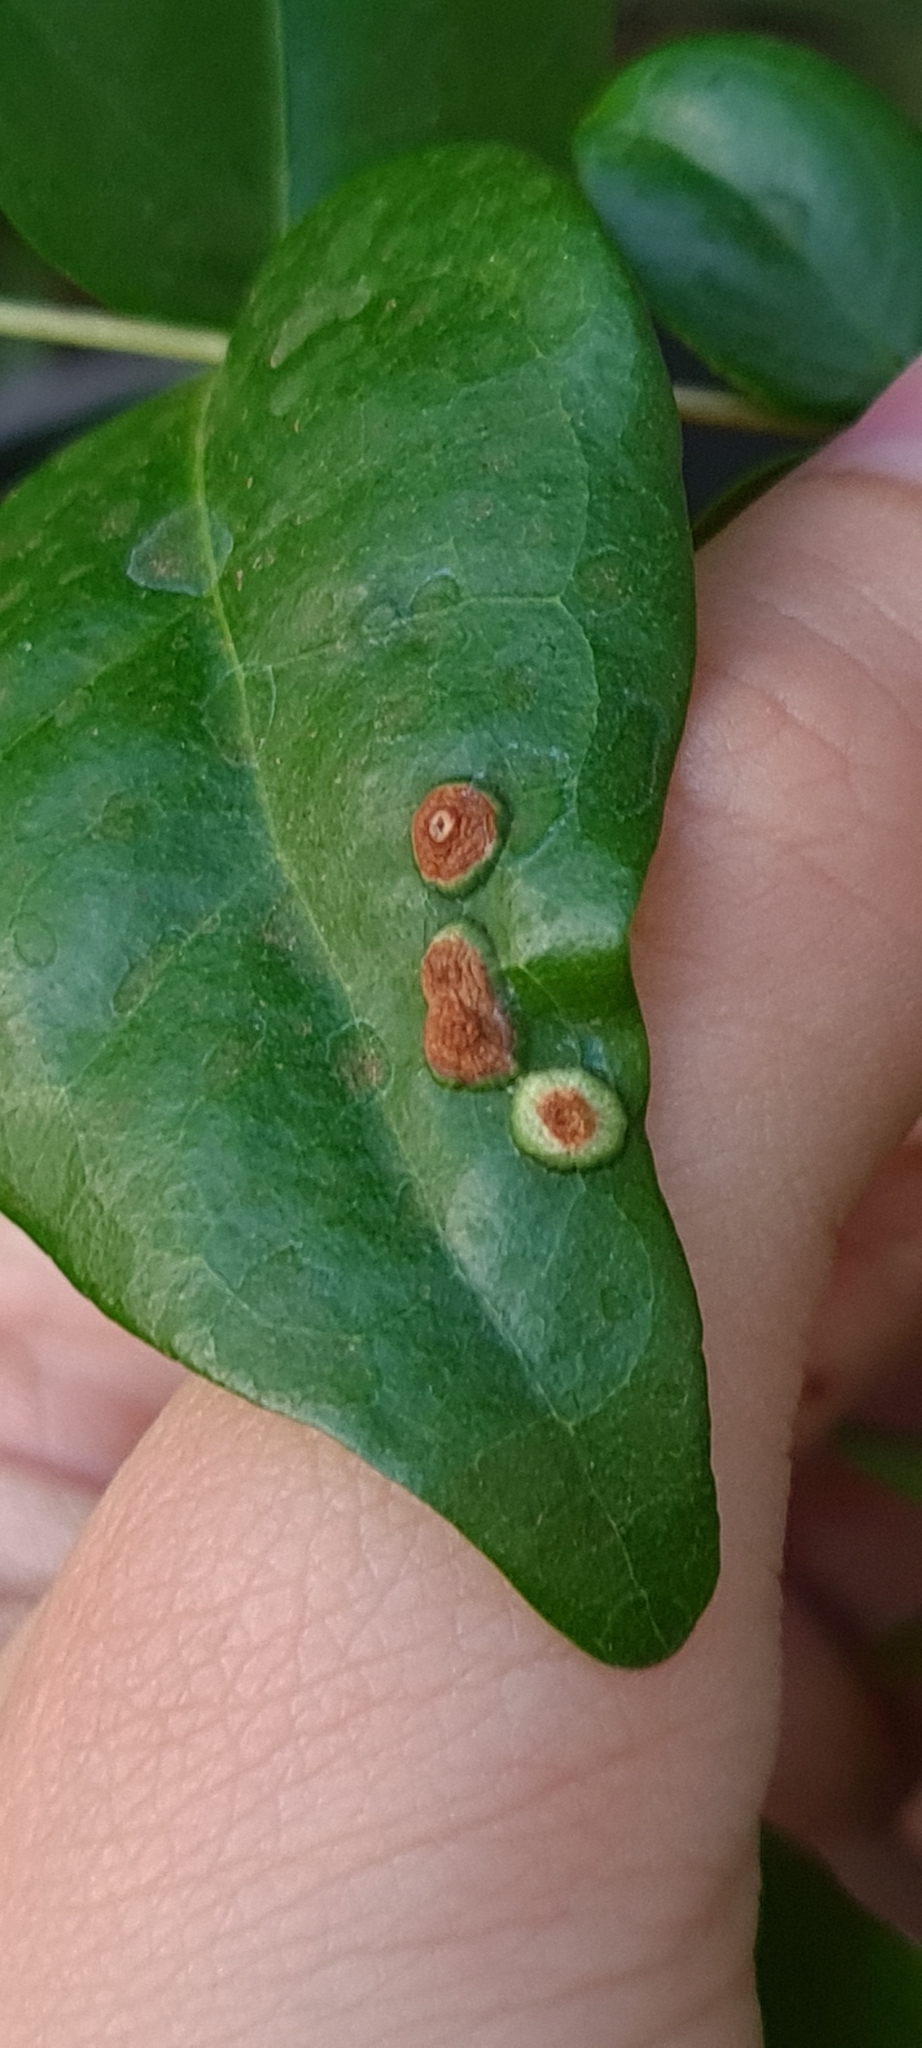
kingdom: Animalia
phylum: Arthropoda
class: Insecta
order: Diptera
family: Cecidomyiidae
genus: Maiamyia
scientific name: Maiamyia dispar
